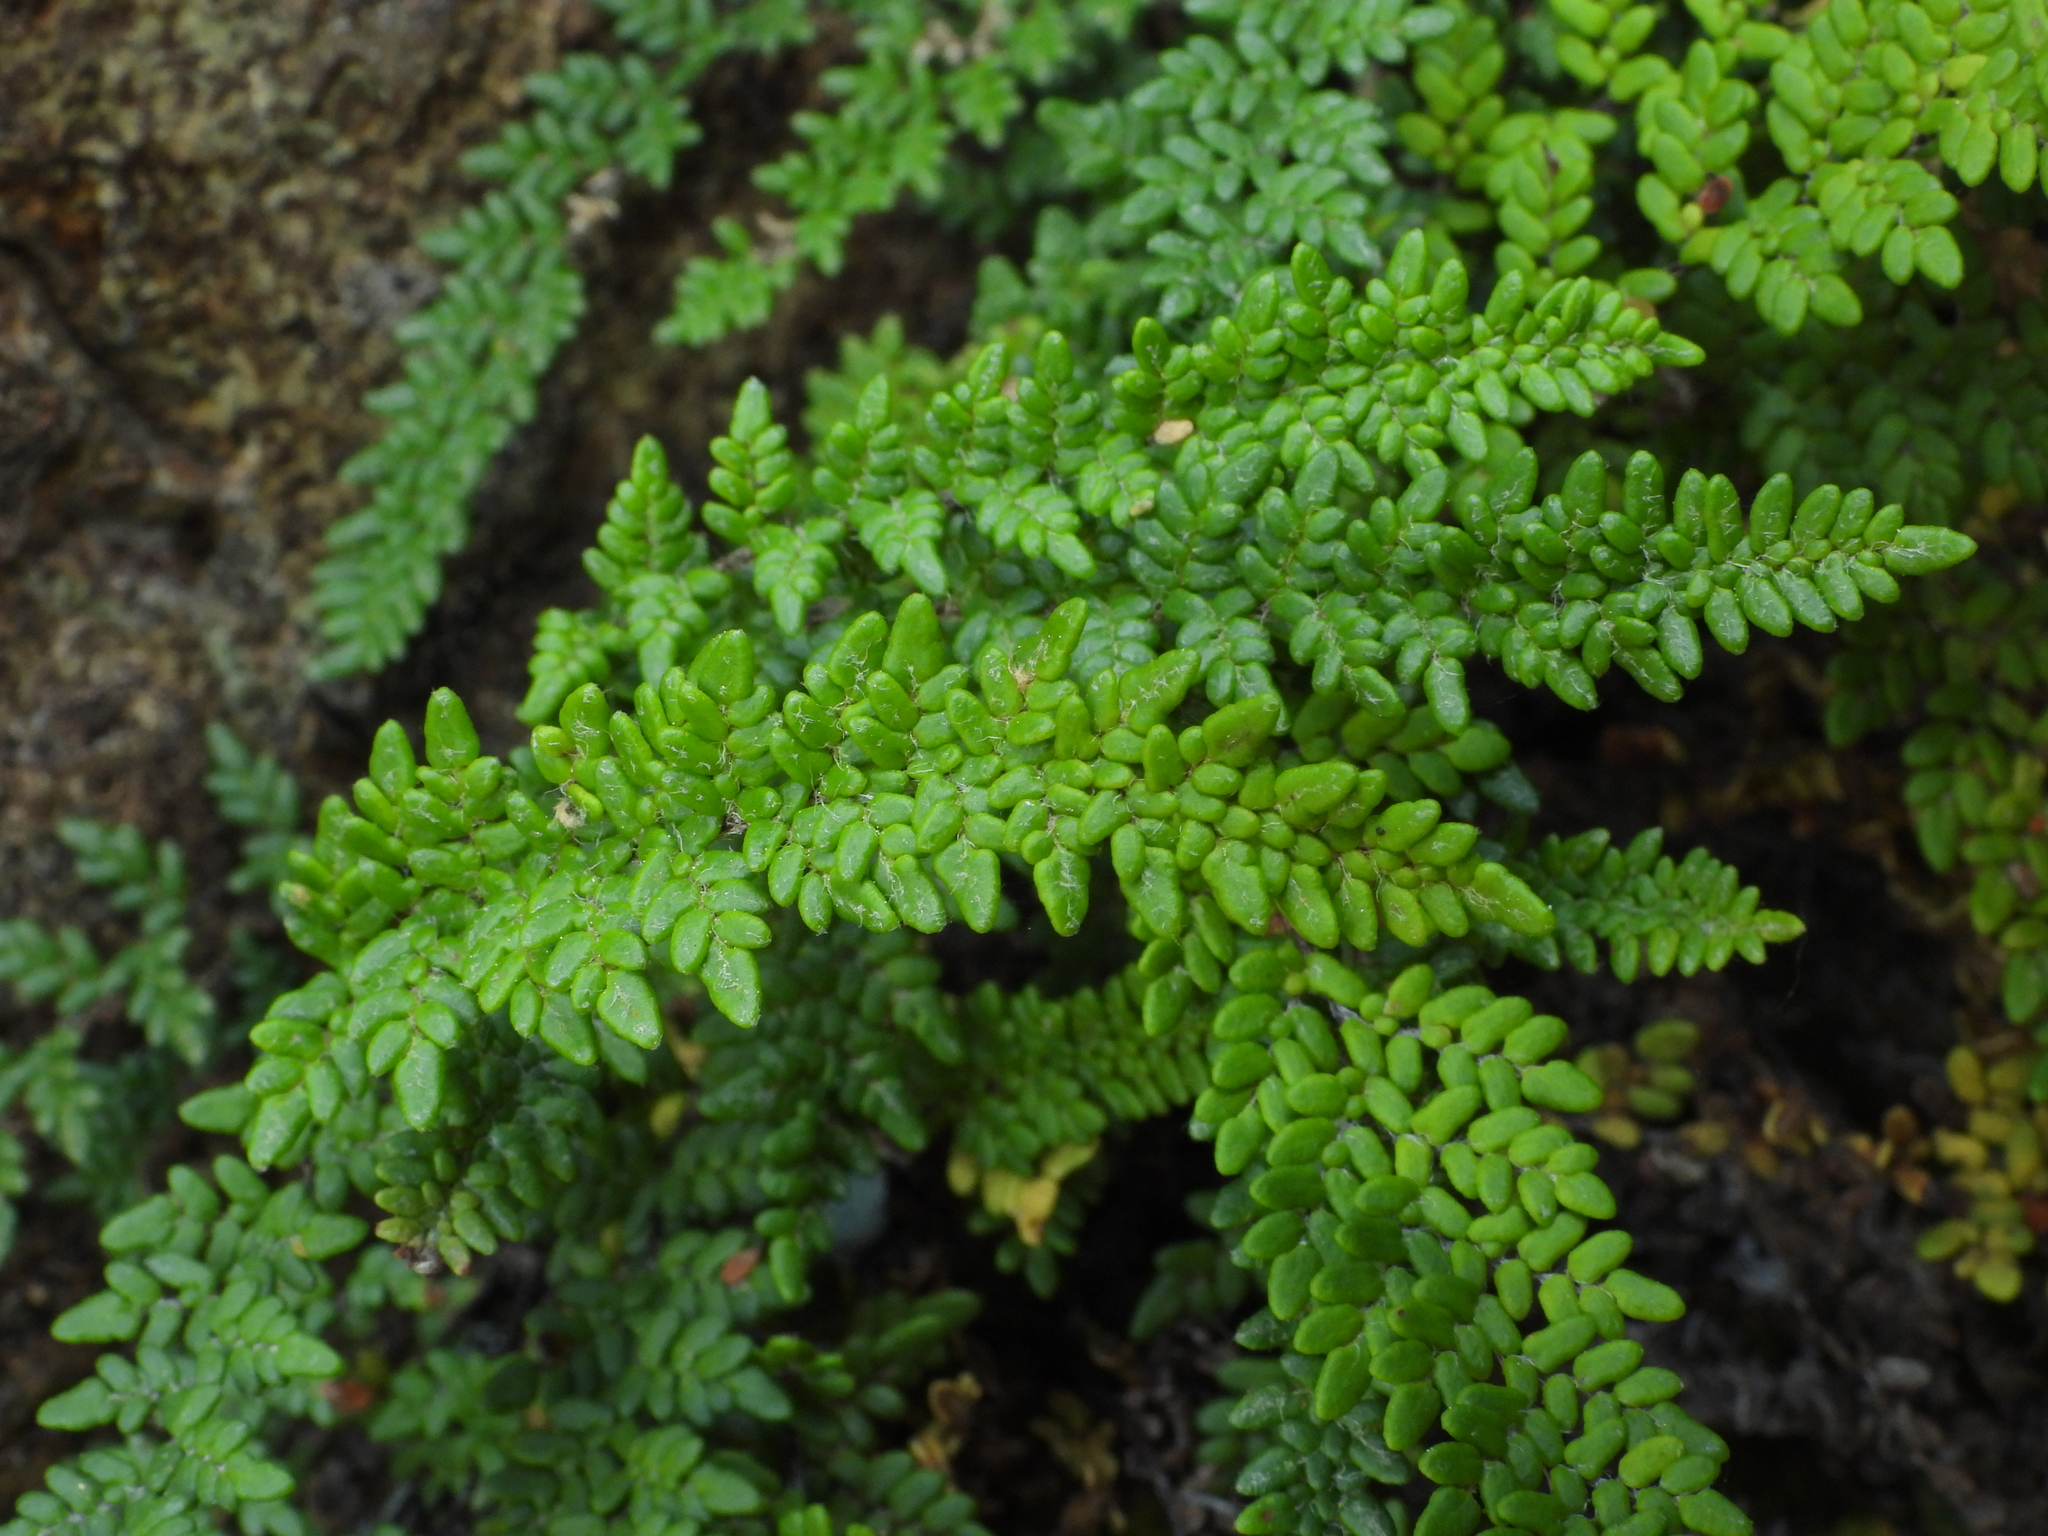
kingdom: Plantae
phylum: Tracheophyta
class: Polypodiopsida
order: Polypodiales
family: Pteridaceae
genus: Myriopteris
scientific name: Myriopteris gracillima
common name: Lace fern
